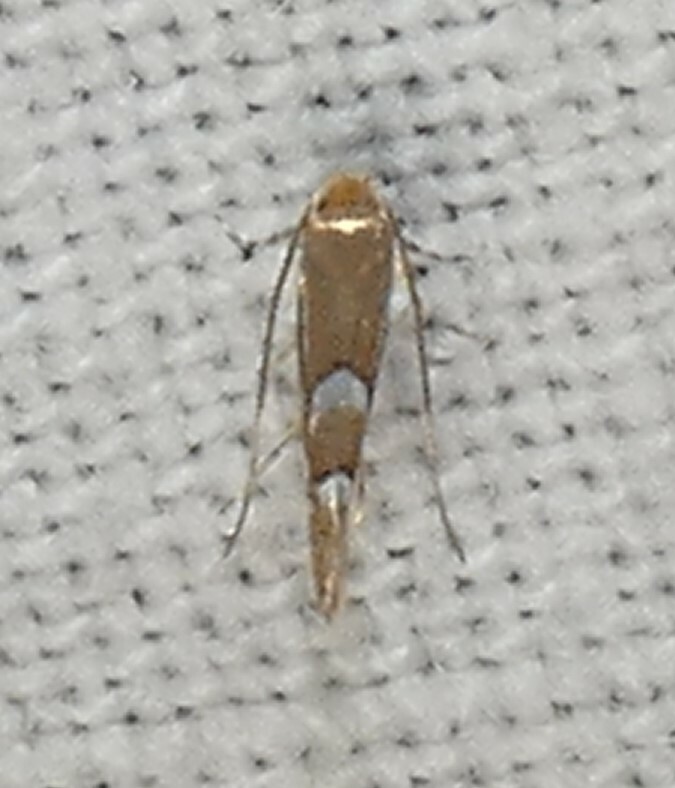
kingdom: Animalia
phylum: Arthropoda
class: Insecta
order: Lepidoptera
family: Gracillariidae
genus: Phyllonorycter
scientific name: Phyllonorycter aeriferella
